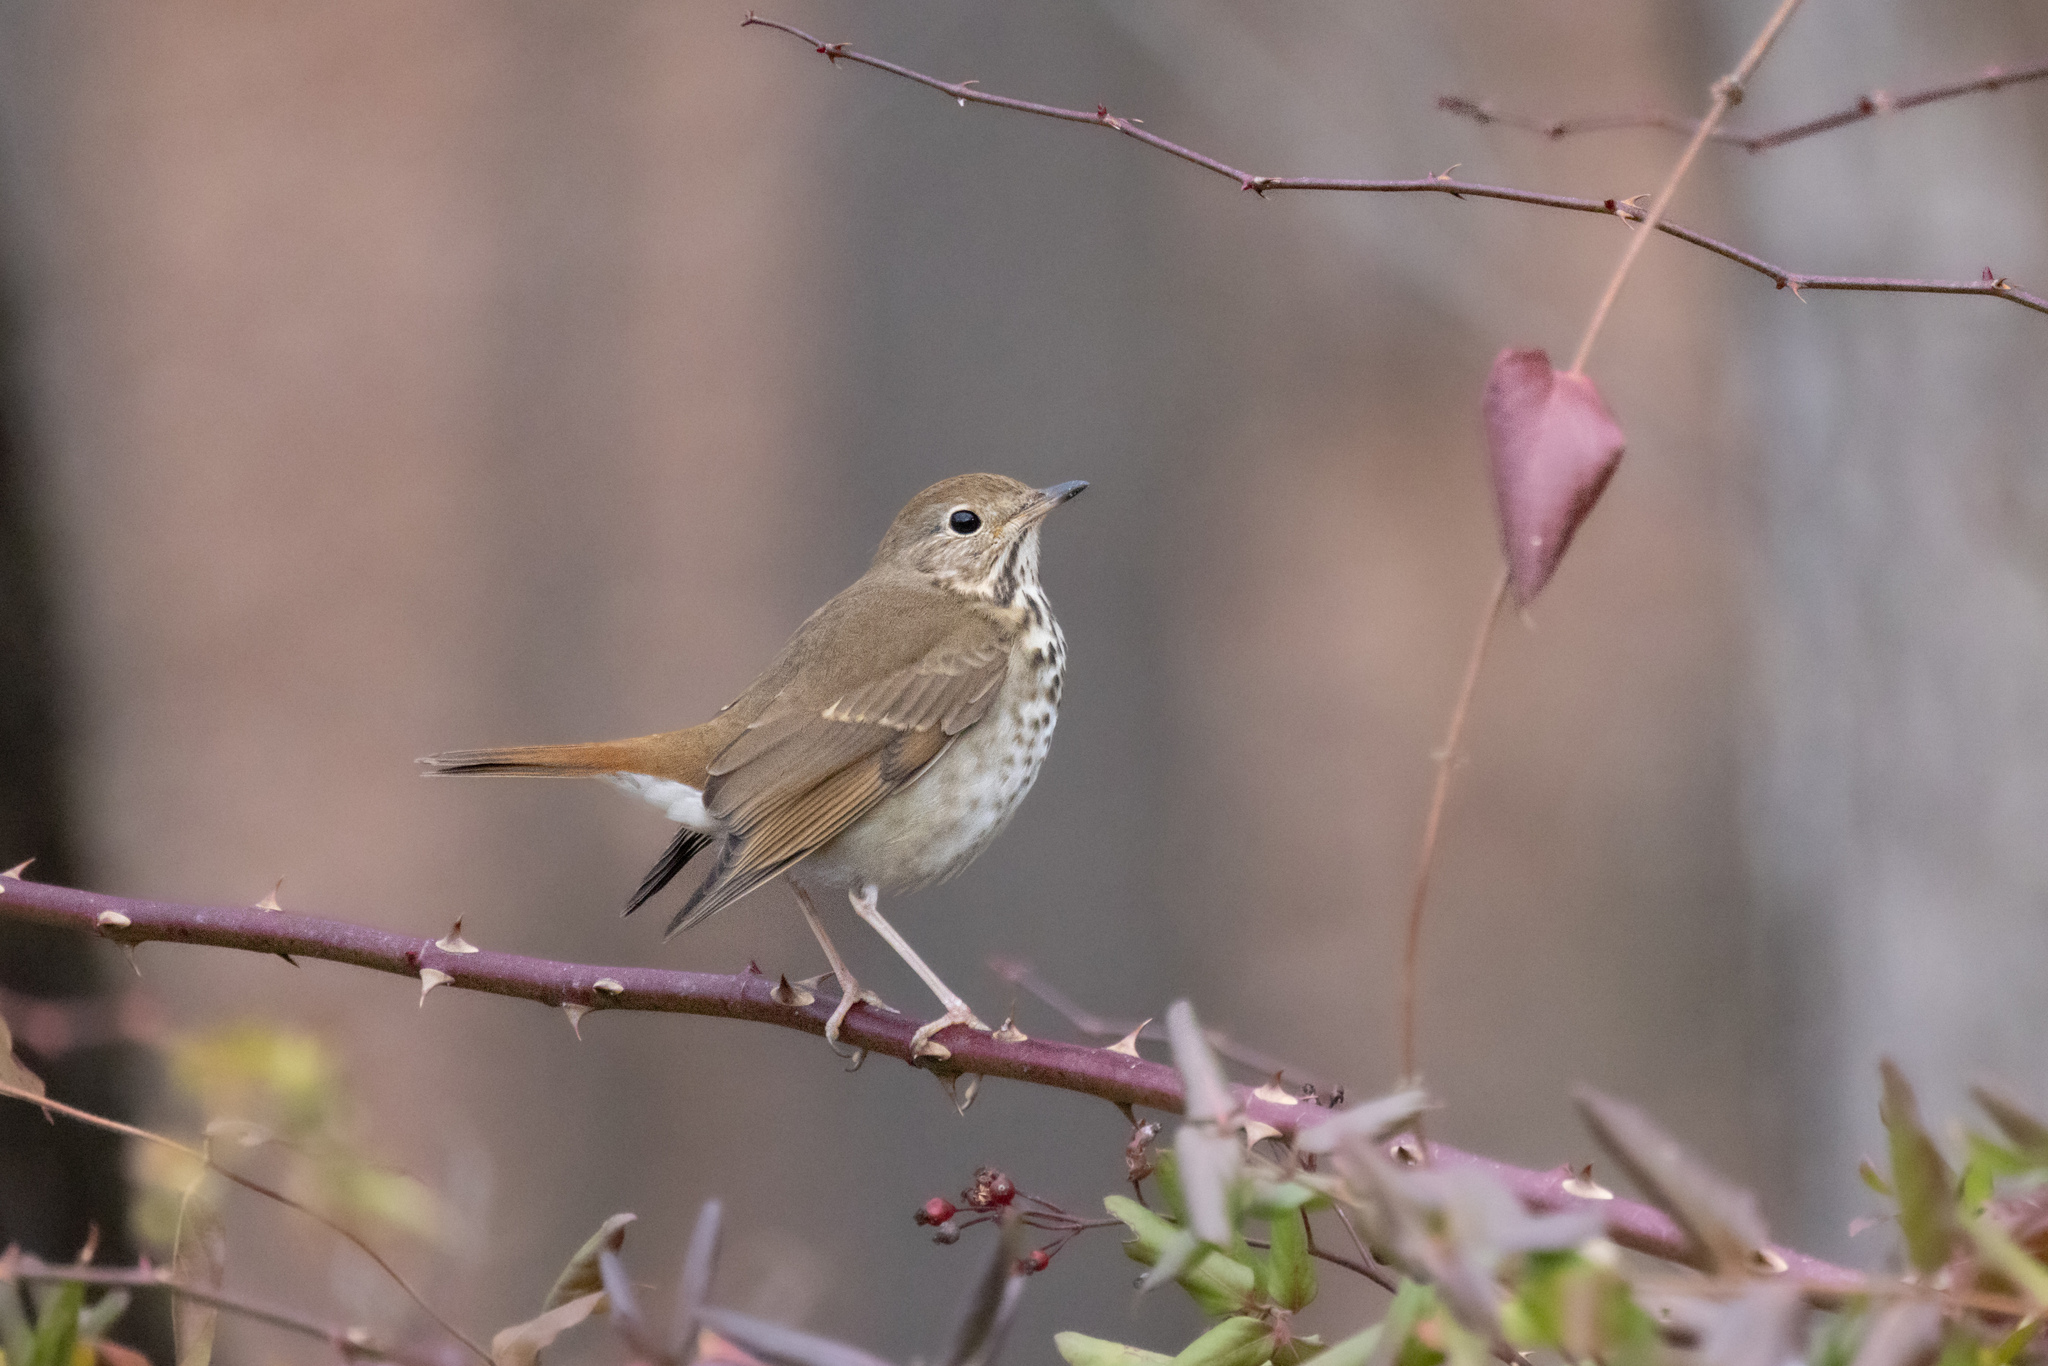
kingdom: Animalia
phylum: Chordata
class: Aves
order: Passeriformes
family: Turdidae
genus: Catharus
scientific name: Catharus guttatus
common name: Hermit thrush
